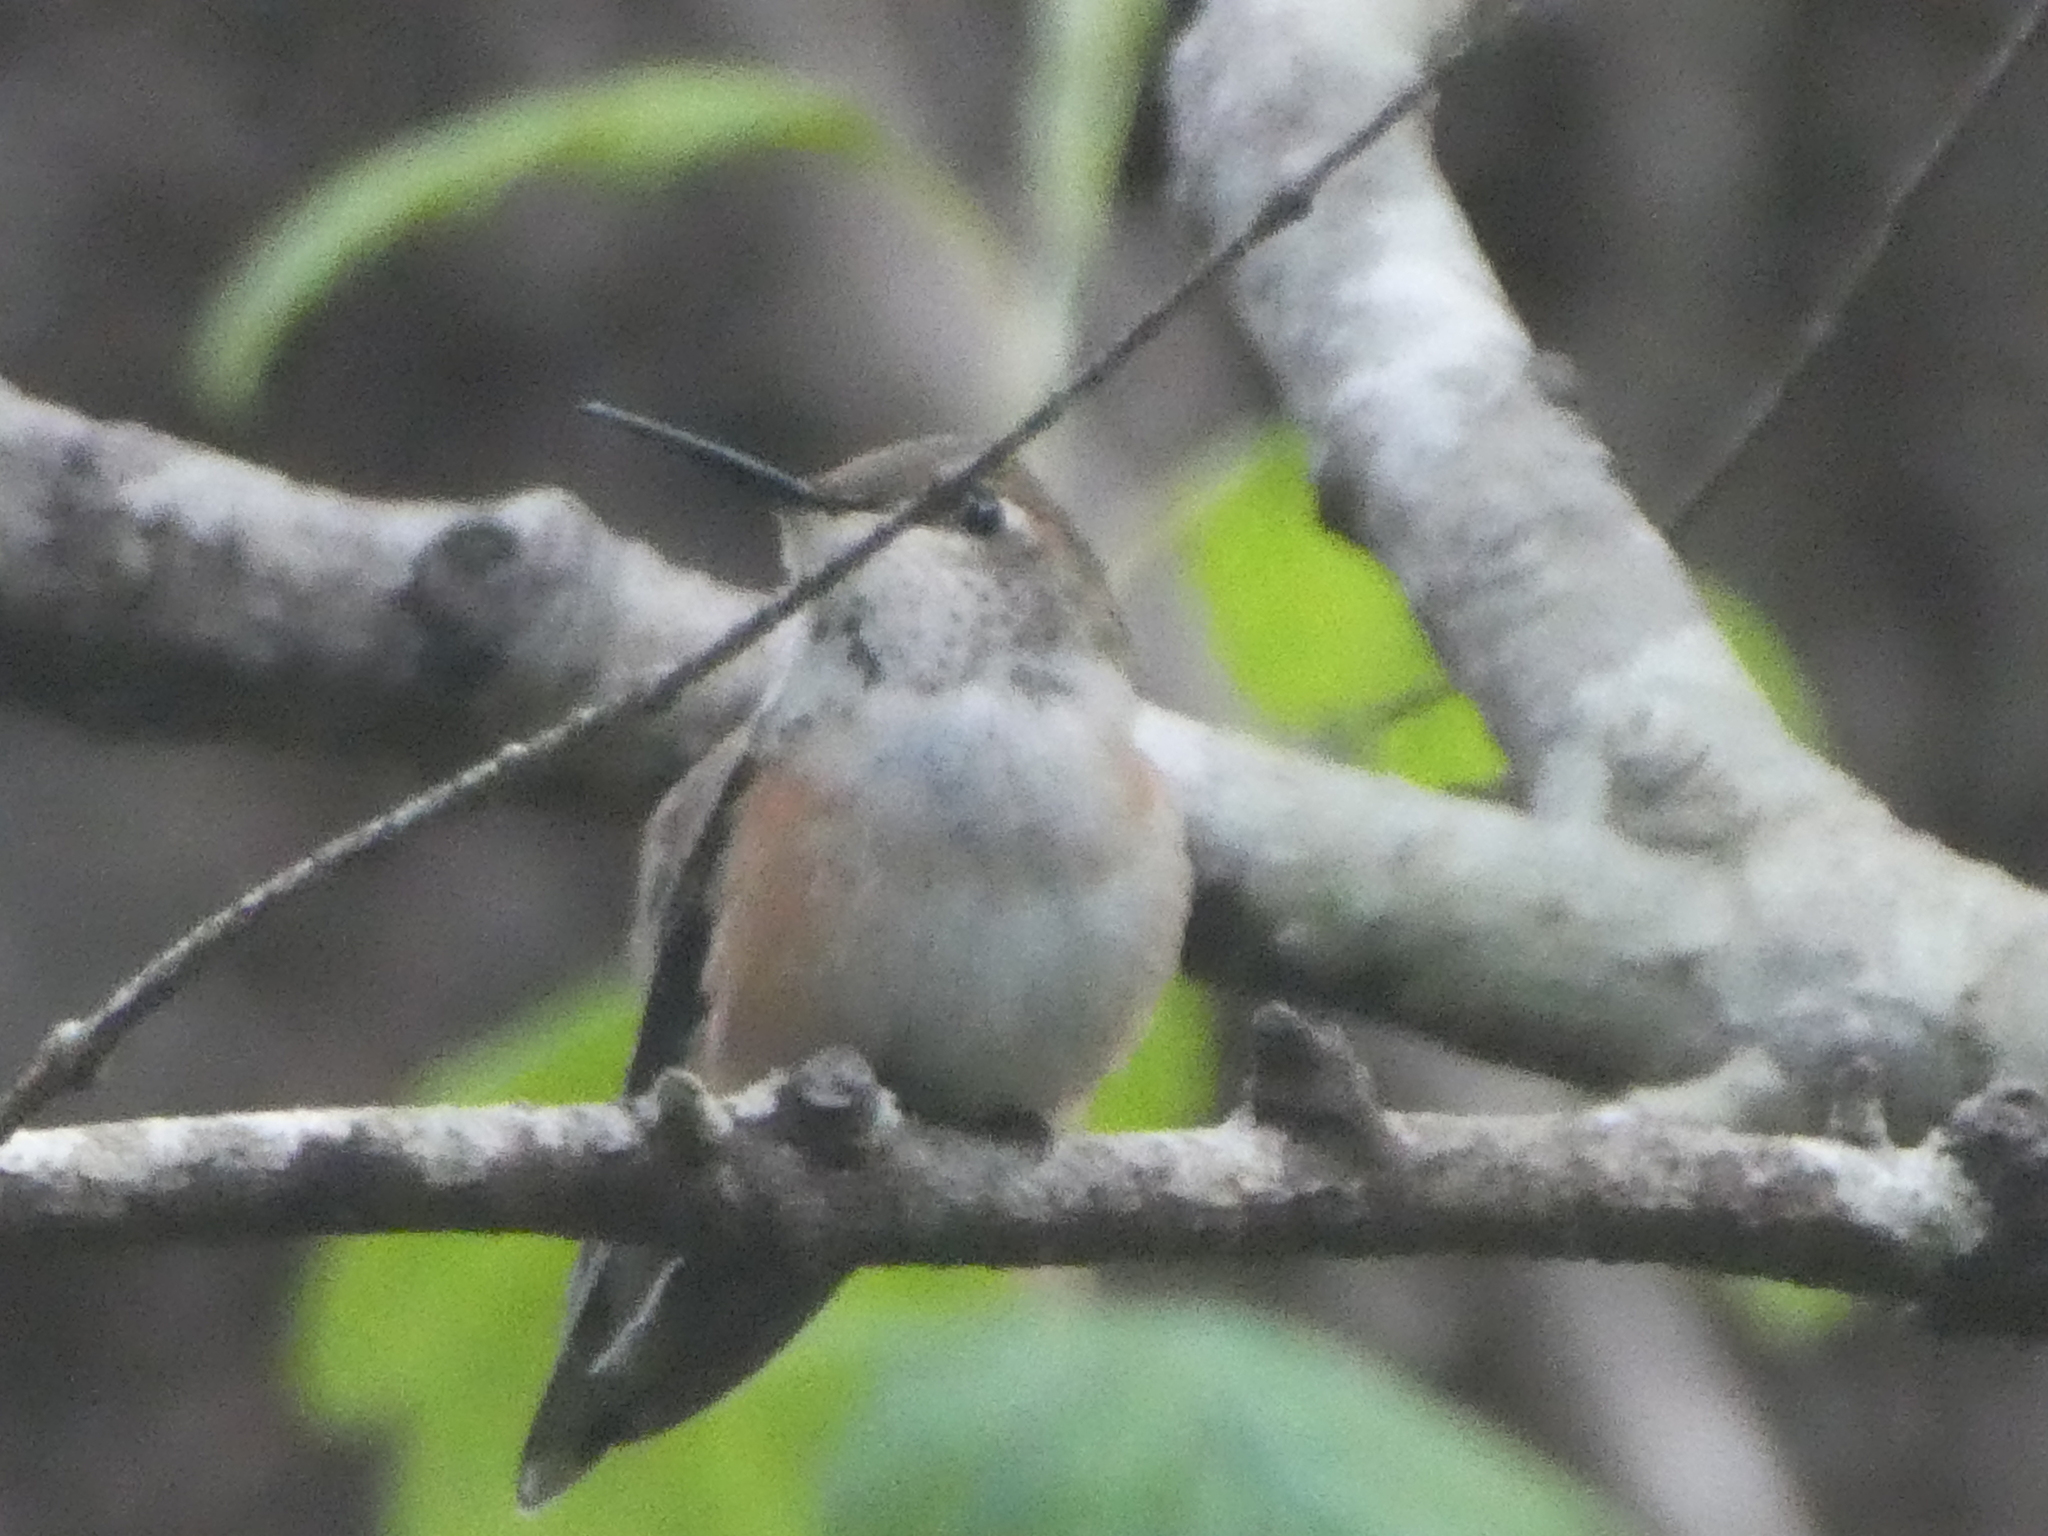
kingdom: Animalia
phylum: Chordata
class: Aves
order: Apodiformes
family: Trochilidae
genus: Selasphorus
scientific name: Selasphorus rufus
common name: Rufous hummingbird
